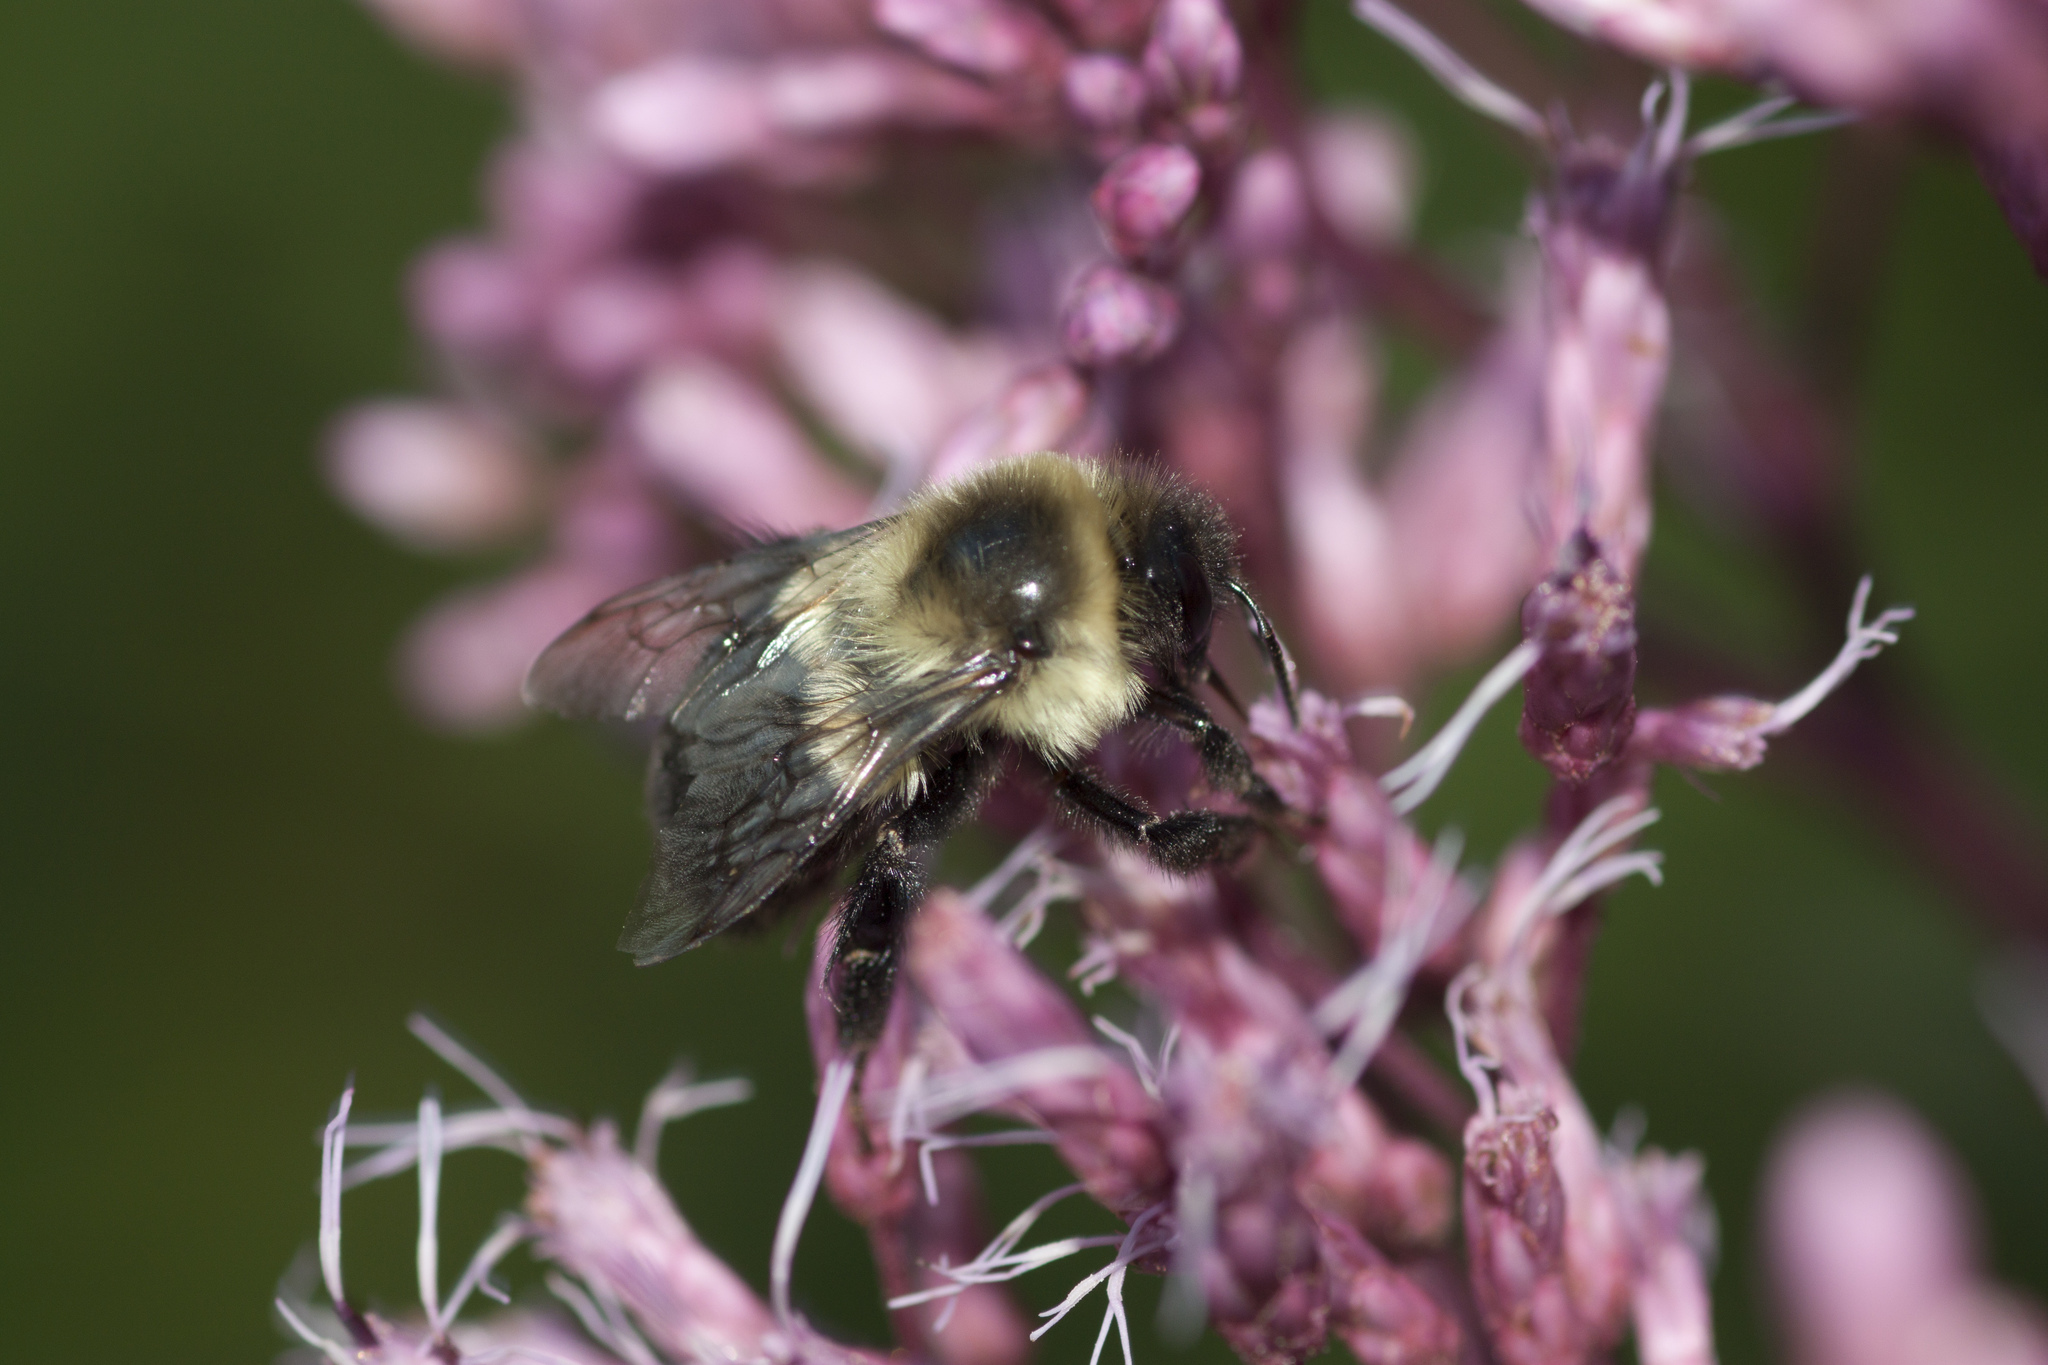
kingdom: Animalia
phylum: Arthropoda
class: Insecta
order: Hymenoptera
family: Apidae
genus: Bombus
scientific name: Bombus impatiens
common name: Common eastern bumble bee
